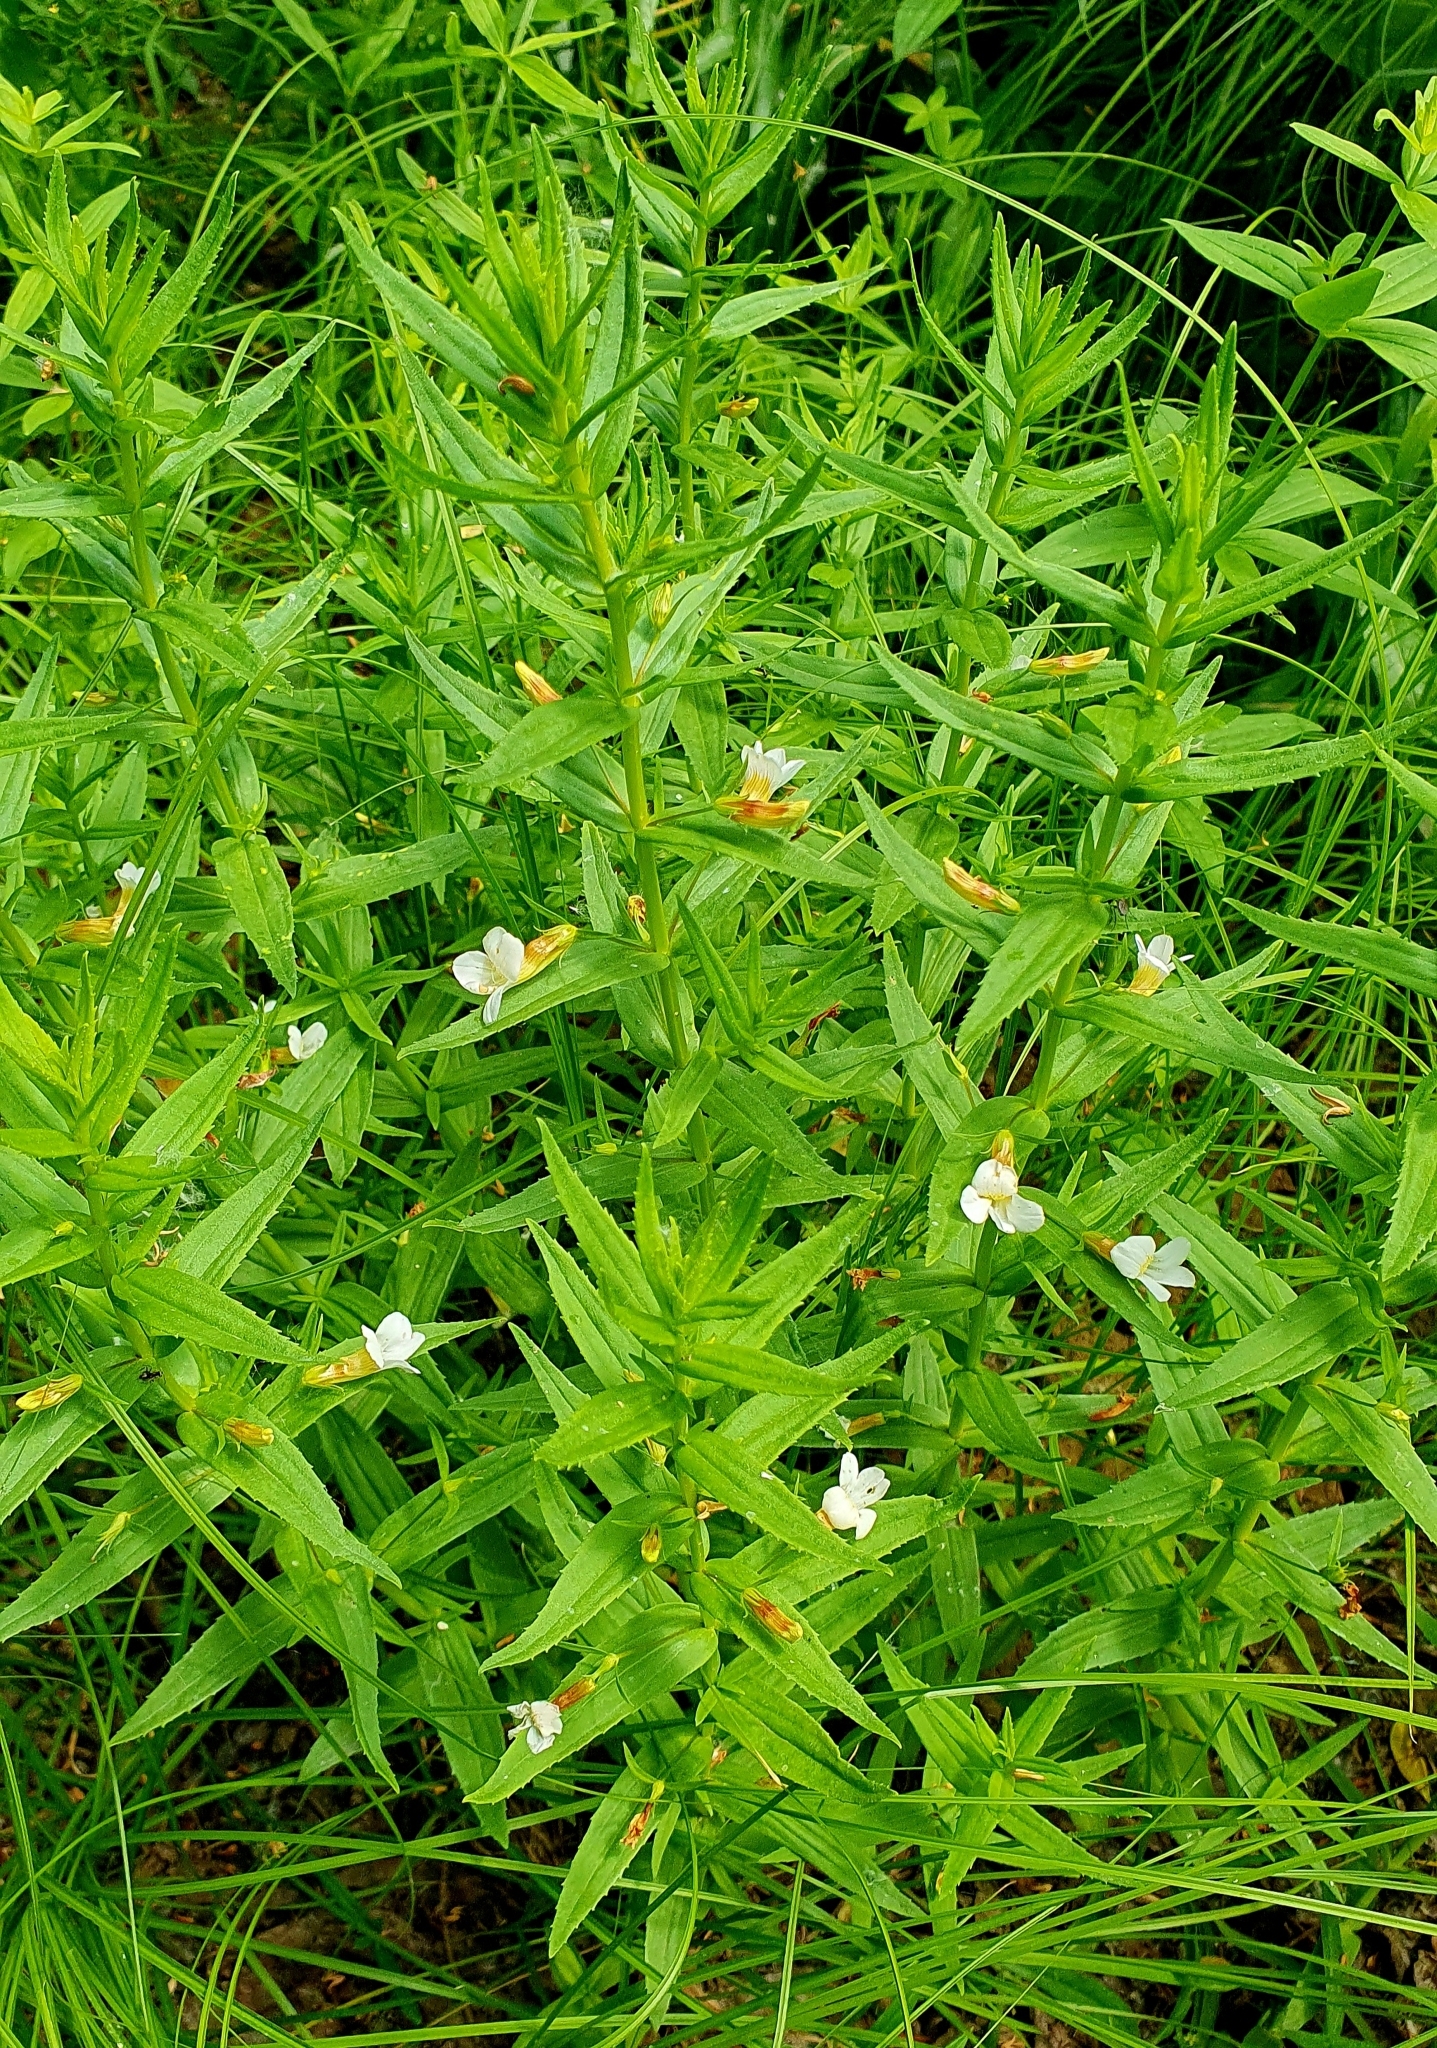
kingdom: Plantae
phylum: Tracheophyta
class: Magnoliopsida
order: Lamiales
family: Plantaginaceae
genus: Gratiola
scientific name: Gratiola officinalis
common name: Gratiola
